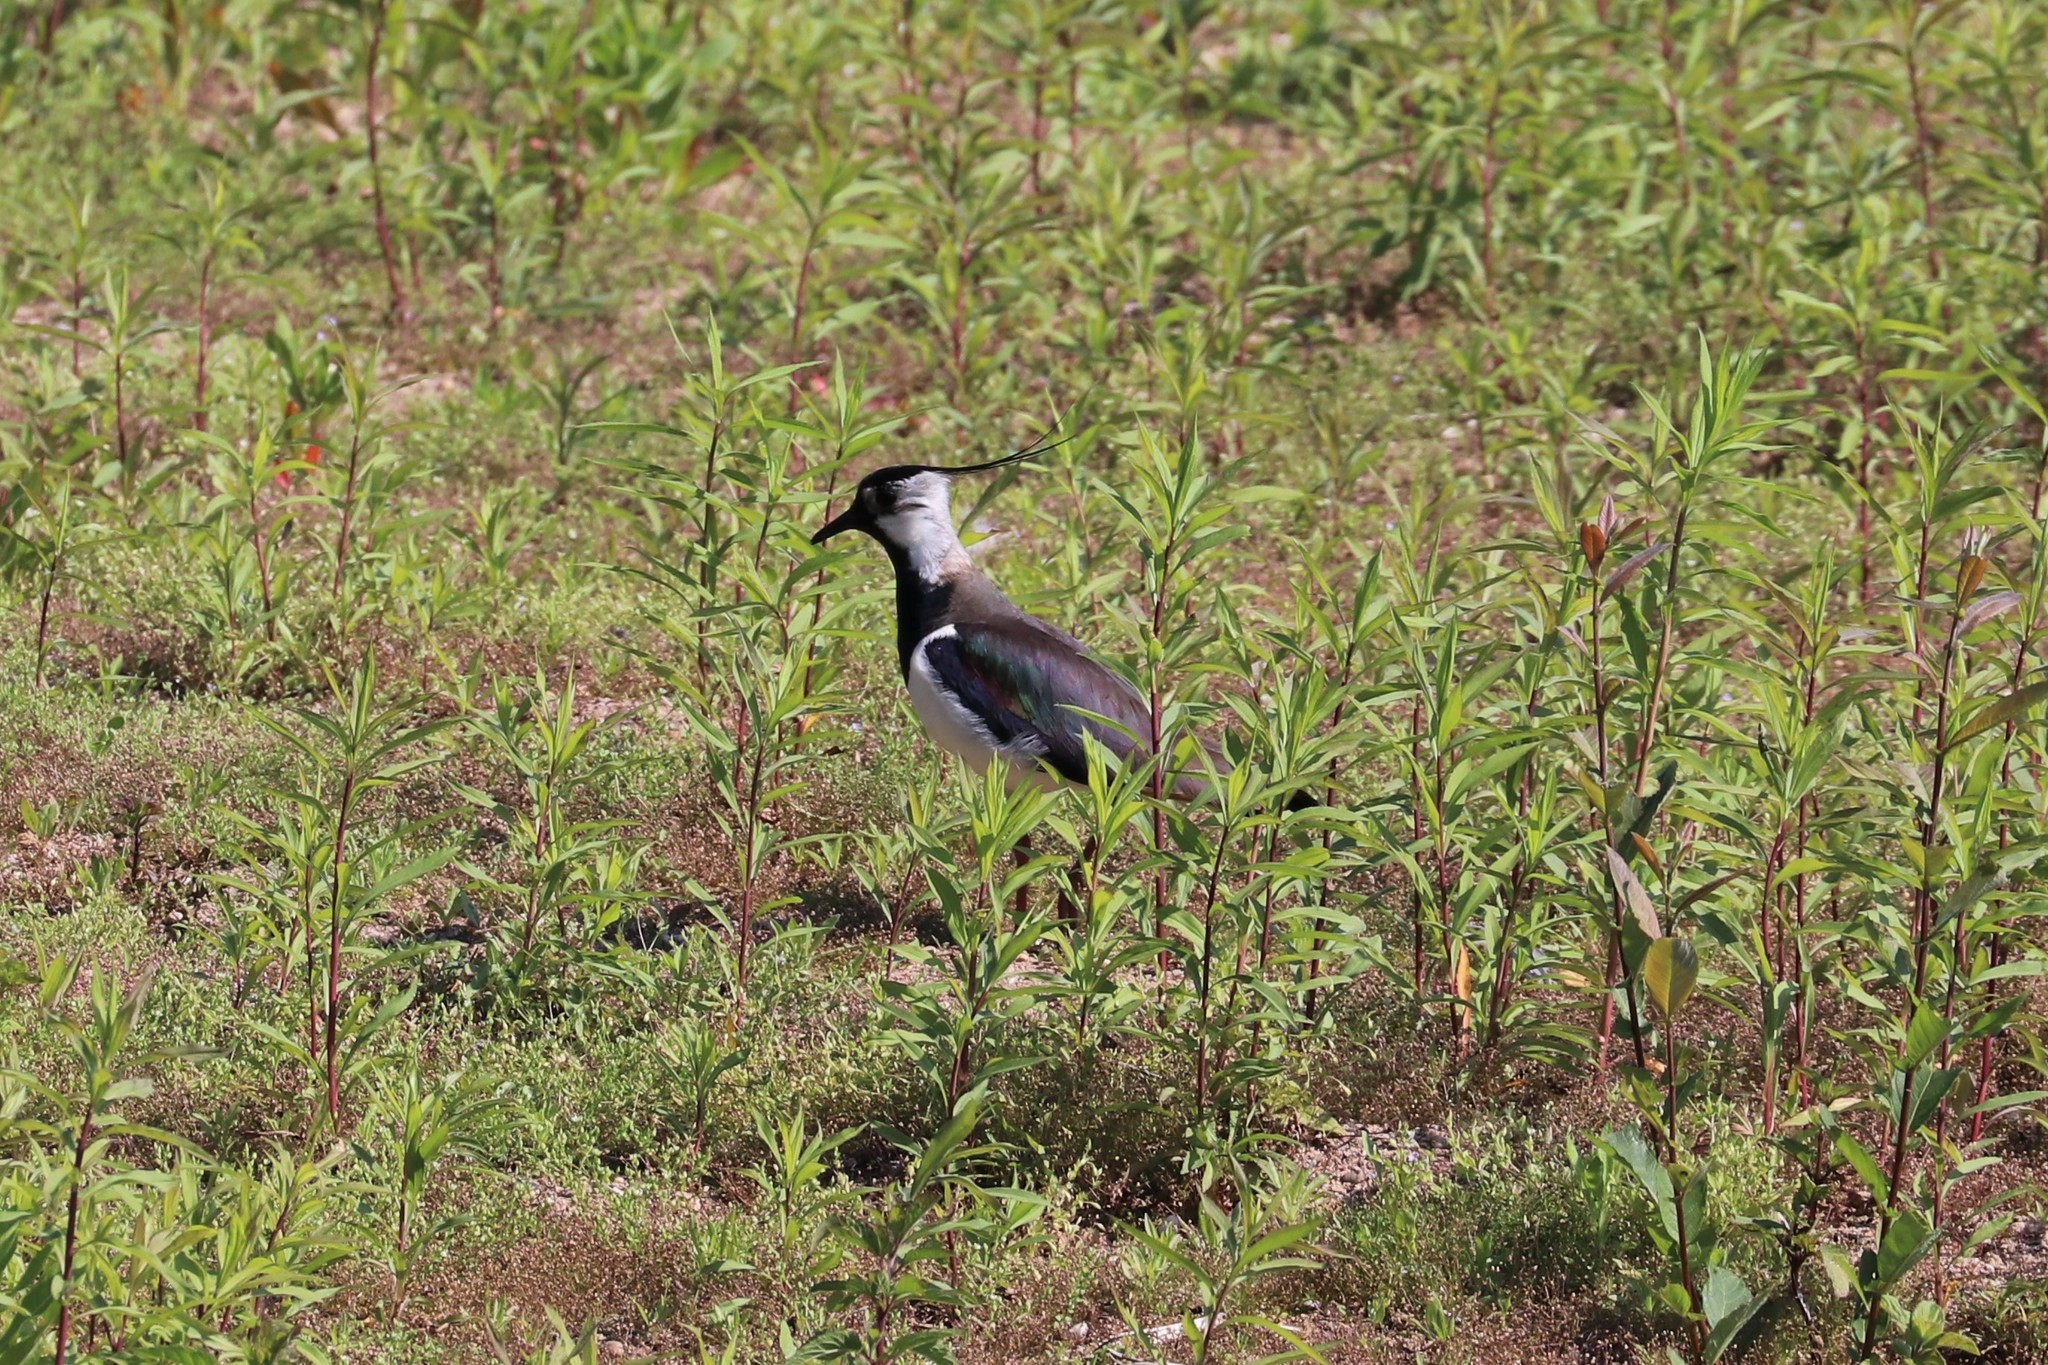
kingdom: Animalia
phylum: Chordata
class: Aves
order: Charadriiformes
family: Charadriidae
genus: Vanellus
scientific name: Vanellus vanellus
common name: Northern lapwing
